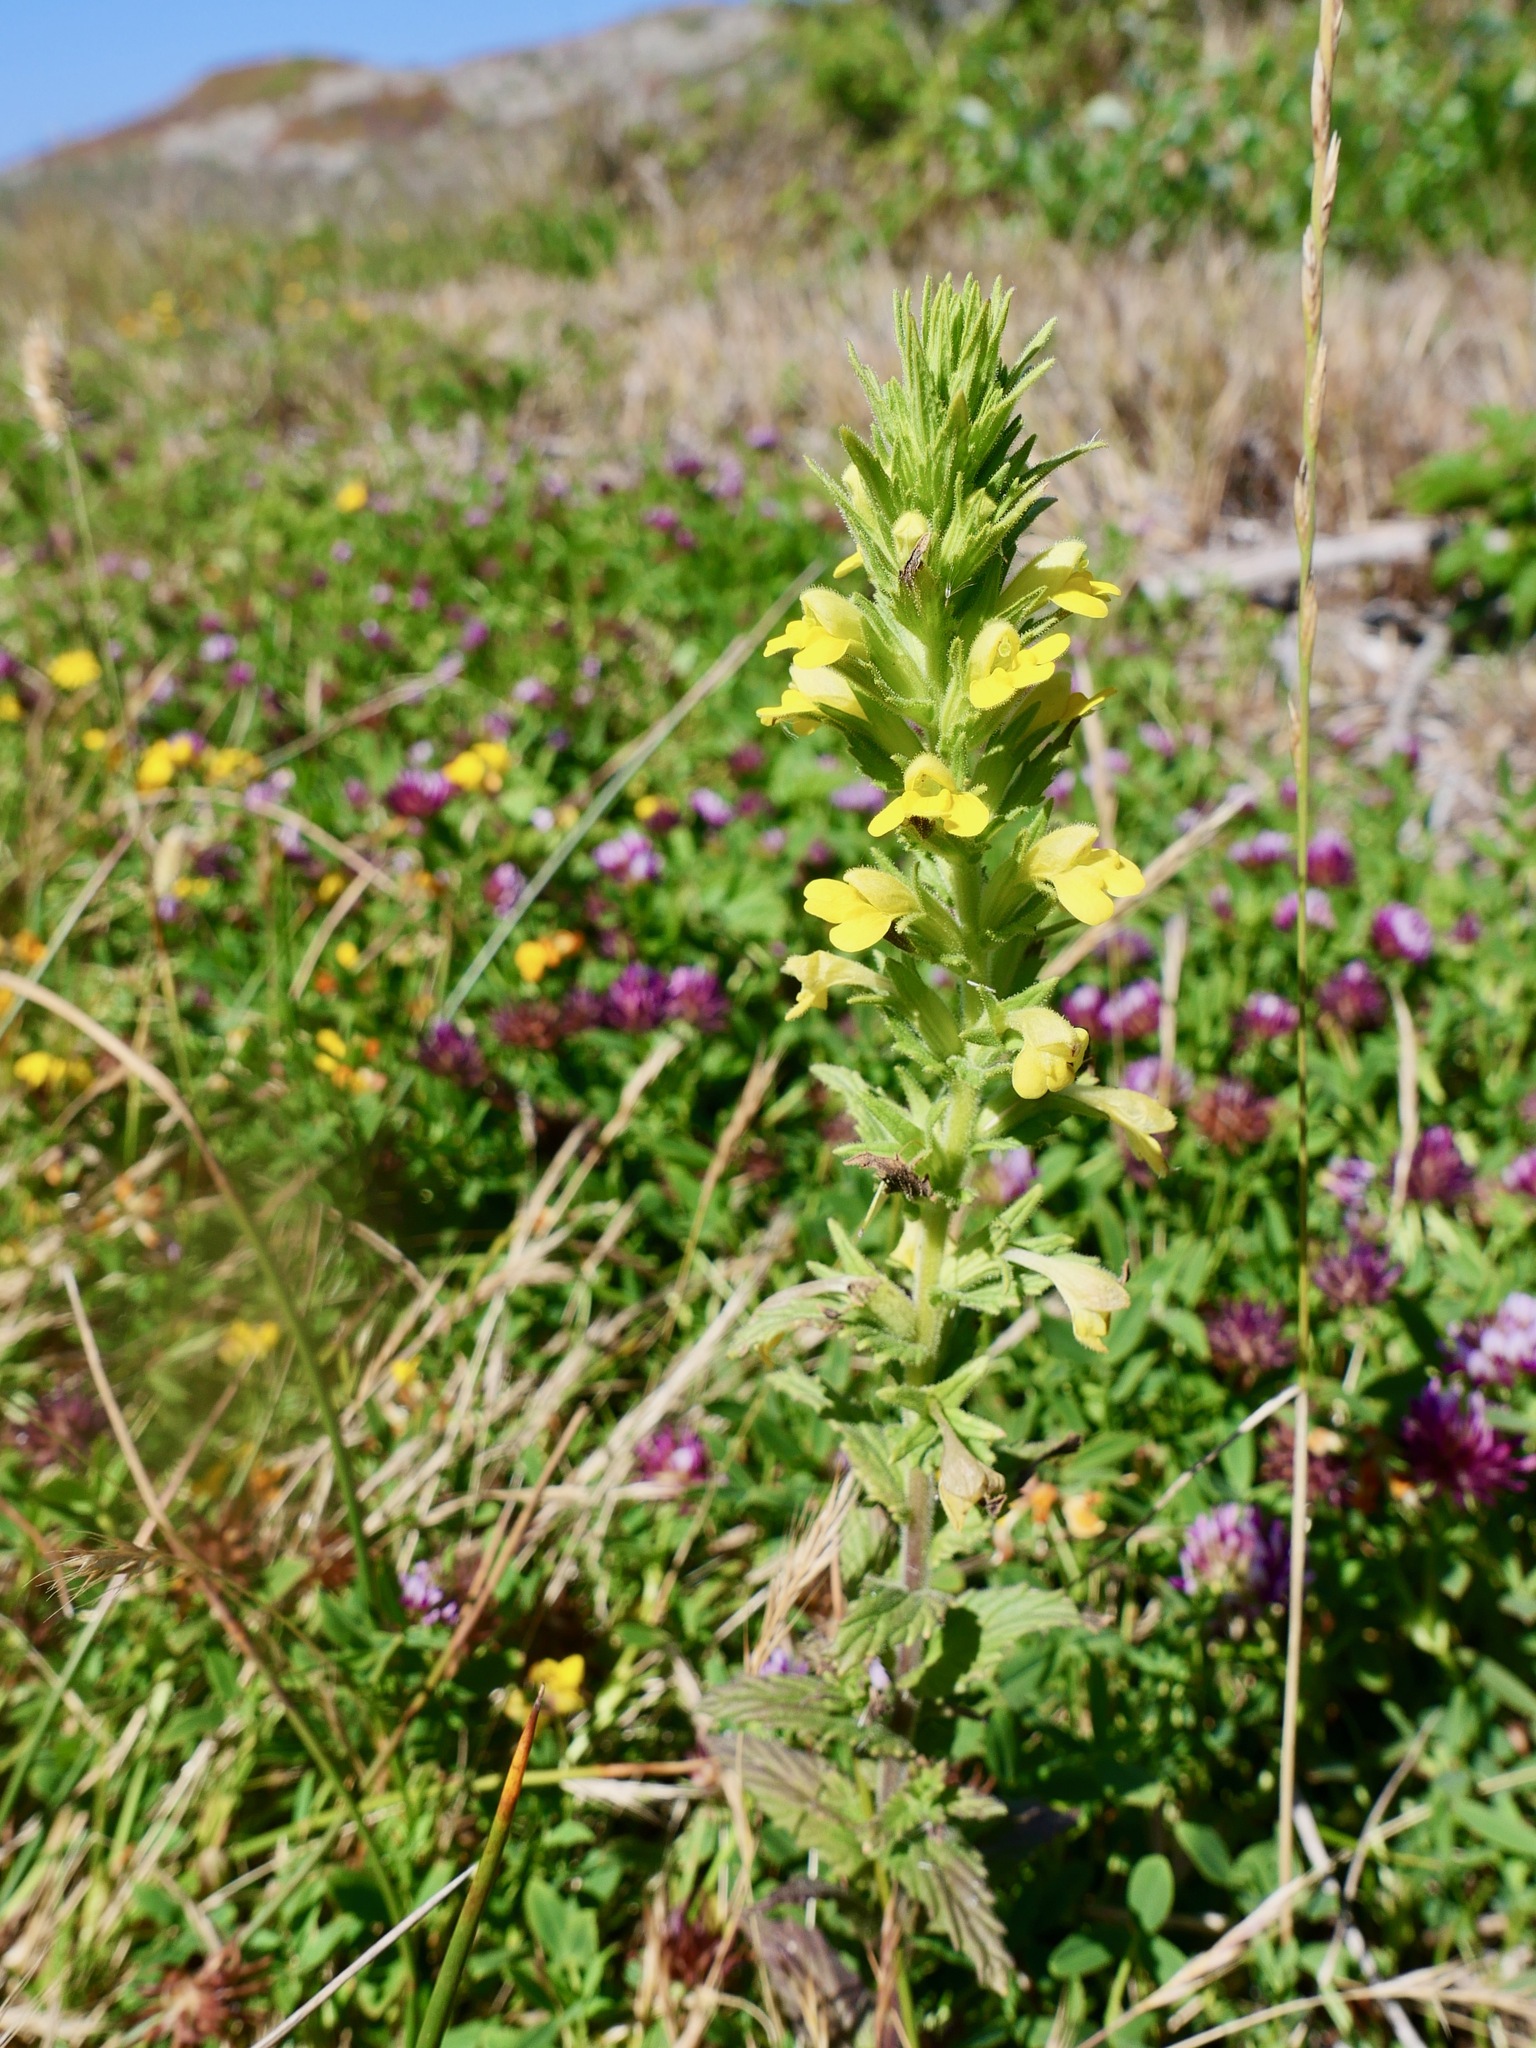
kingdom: Plantae
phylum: Tracheophyta
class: Magnoliopsida
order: Lamiales
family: Orobanchaceae
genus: Bellardia
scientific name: Bellardia viscosa
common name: Sticky parentucellia
